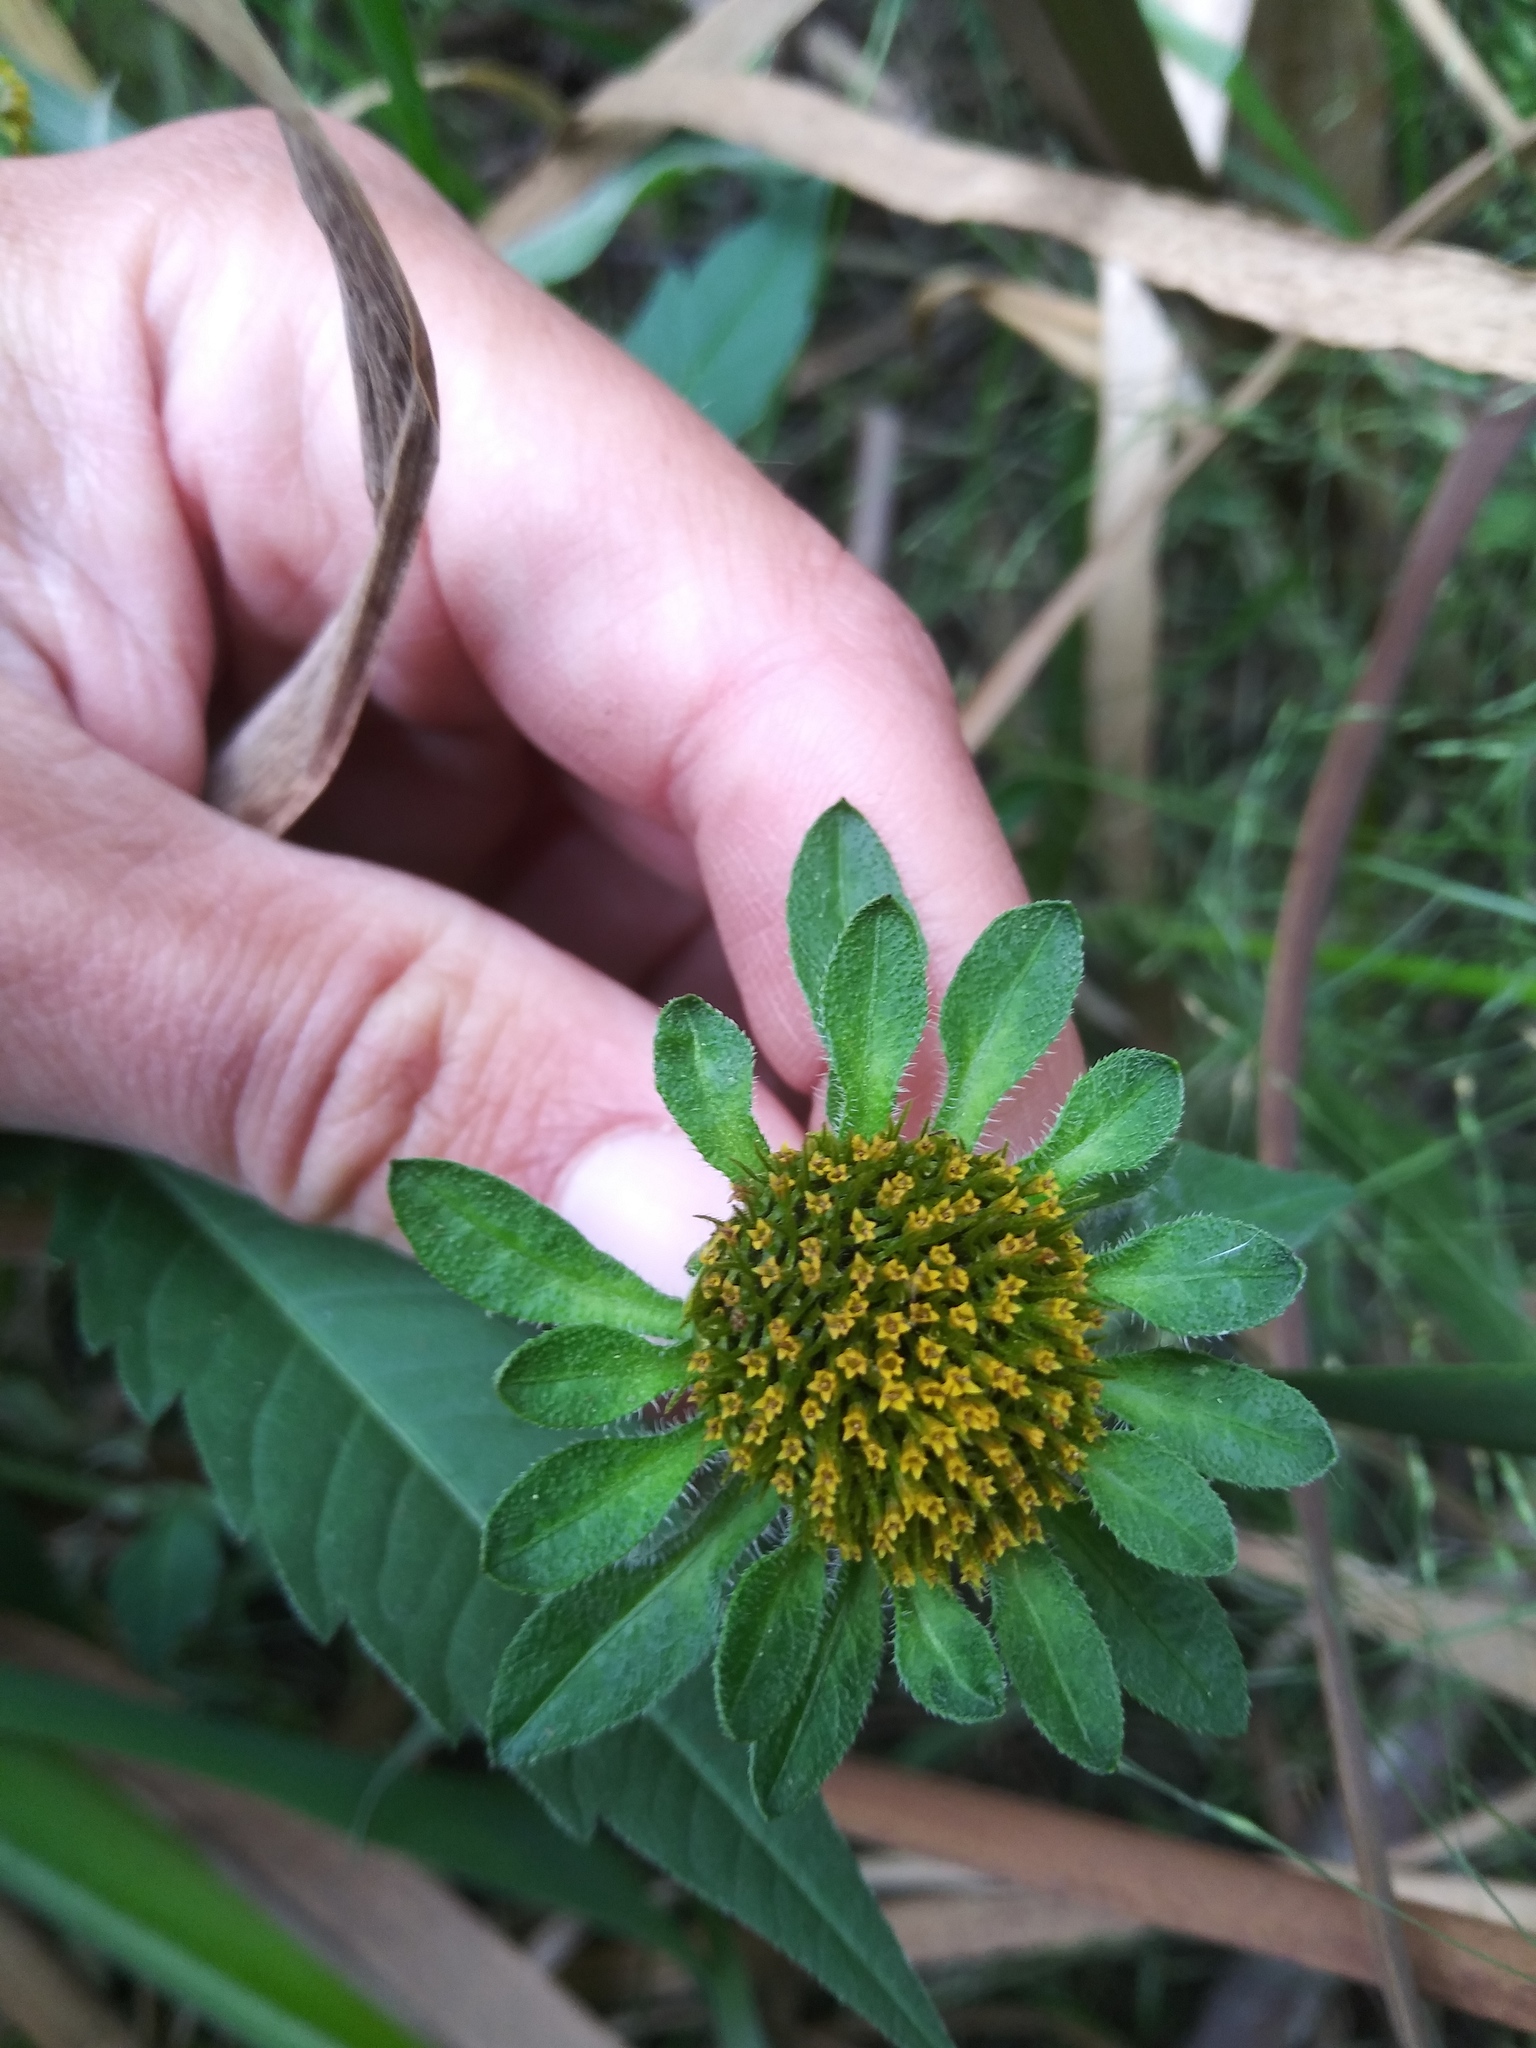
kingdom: Plantae
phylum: Tracheophyta
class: Magnoliopsida
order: Asterales
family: Asteraceae
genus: Bidens
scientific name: Bidens vulgata
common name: Tall beggarticks
